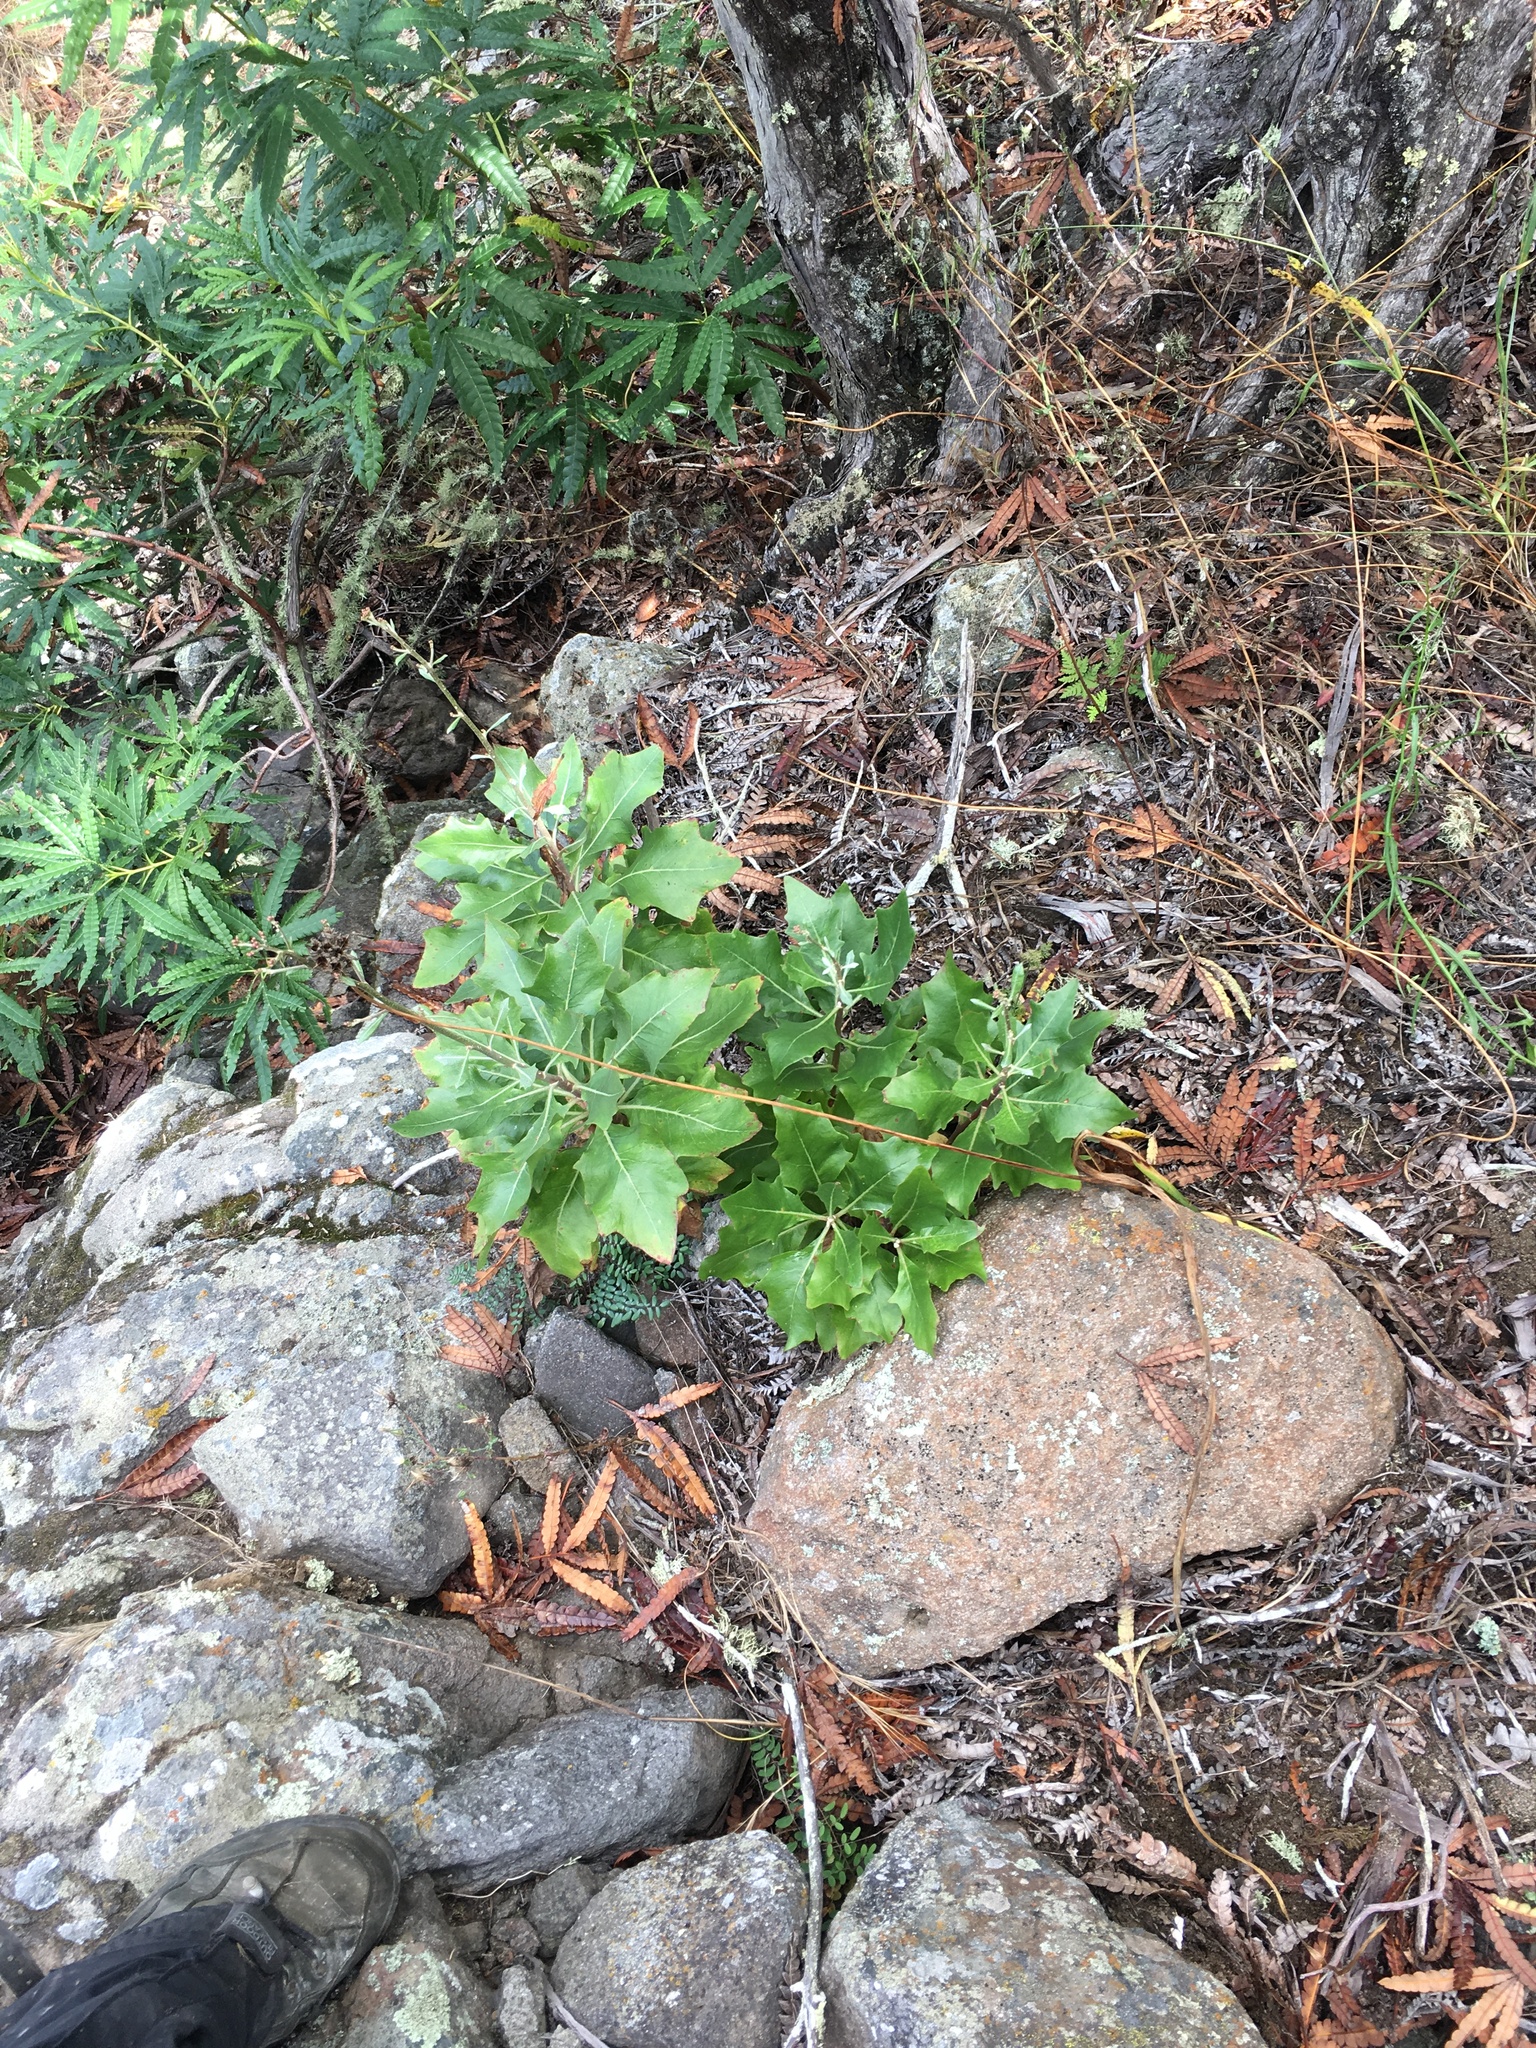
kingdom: Plantae
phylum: Tracheophyta
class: Magnoliopsida
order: Asterales
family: Asteraceae
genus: Munzothamnus
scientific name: Munzothamnus blairii
